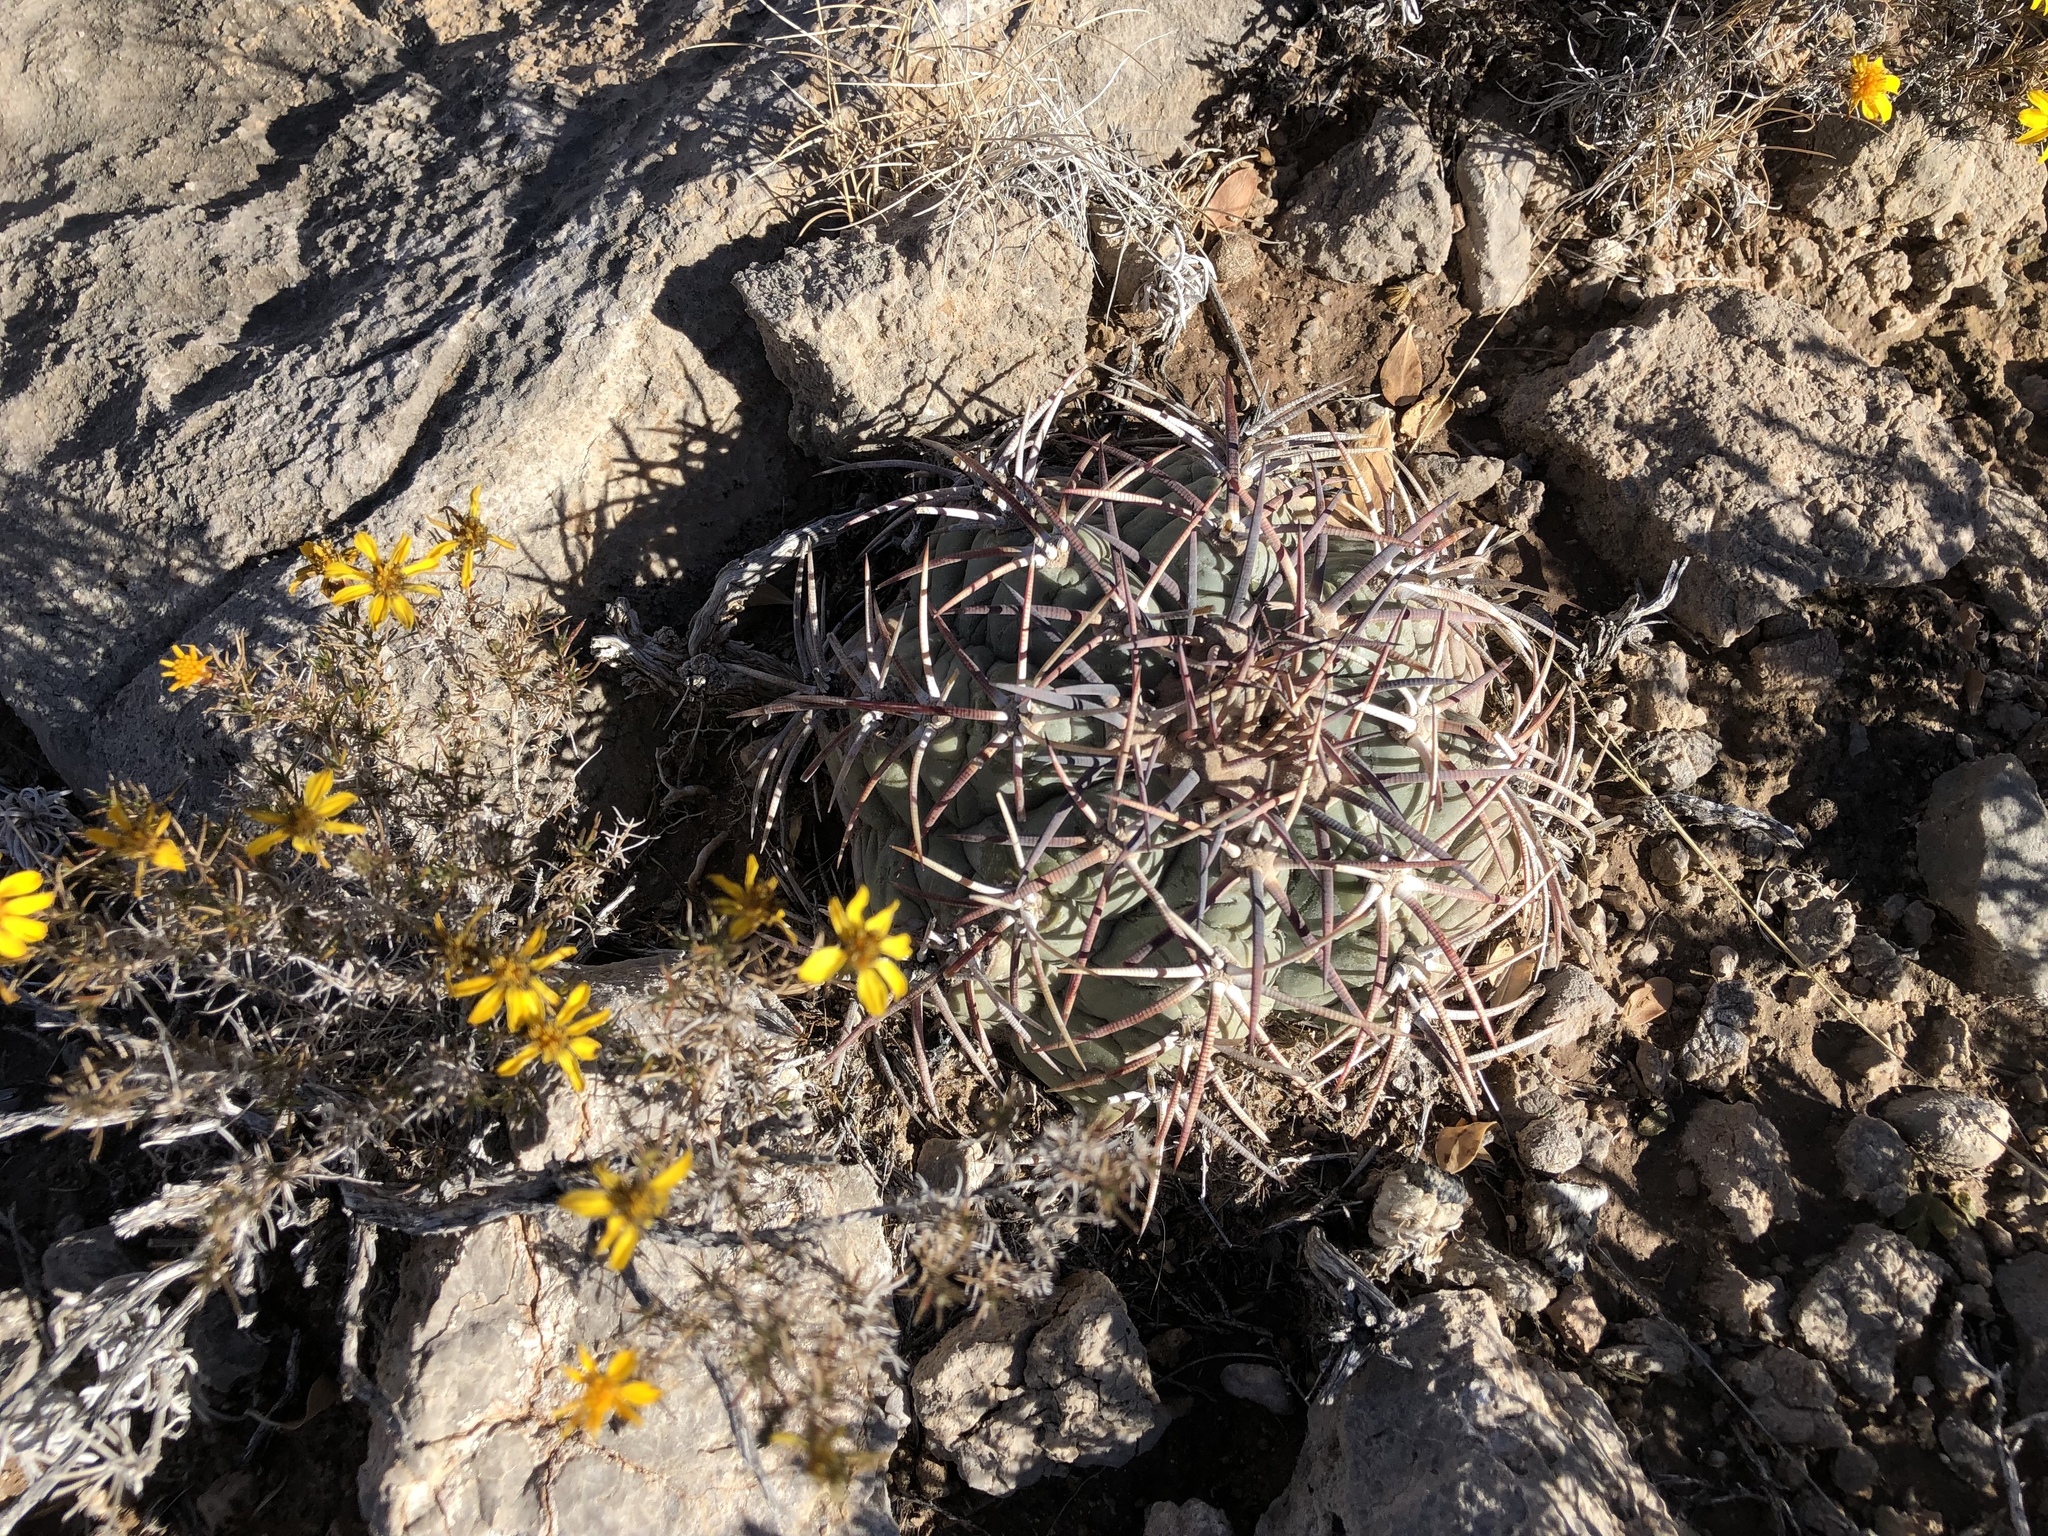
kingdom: Plantae
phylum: Tracheophyta
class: Magnoliopsida
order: Caryophyllales
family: Cactaceae
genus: Echinocactus
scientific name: Echinocactus horizonthalonius
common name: Devilshead
